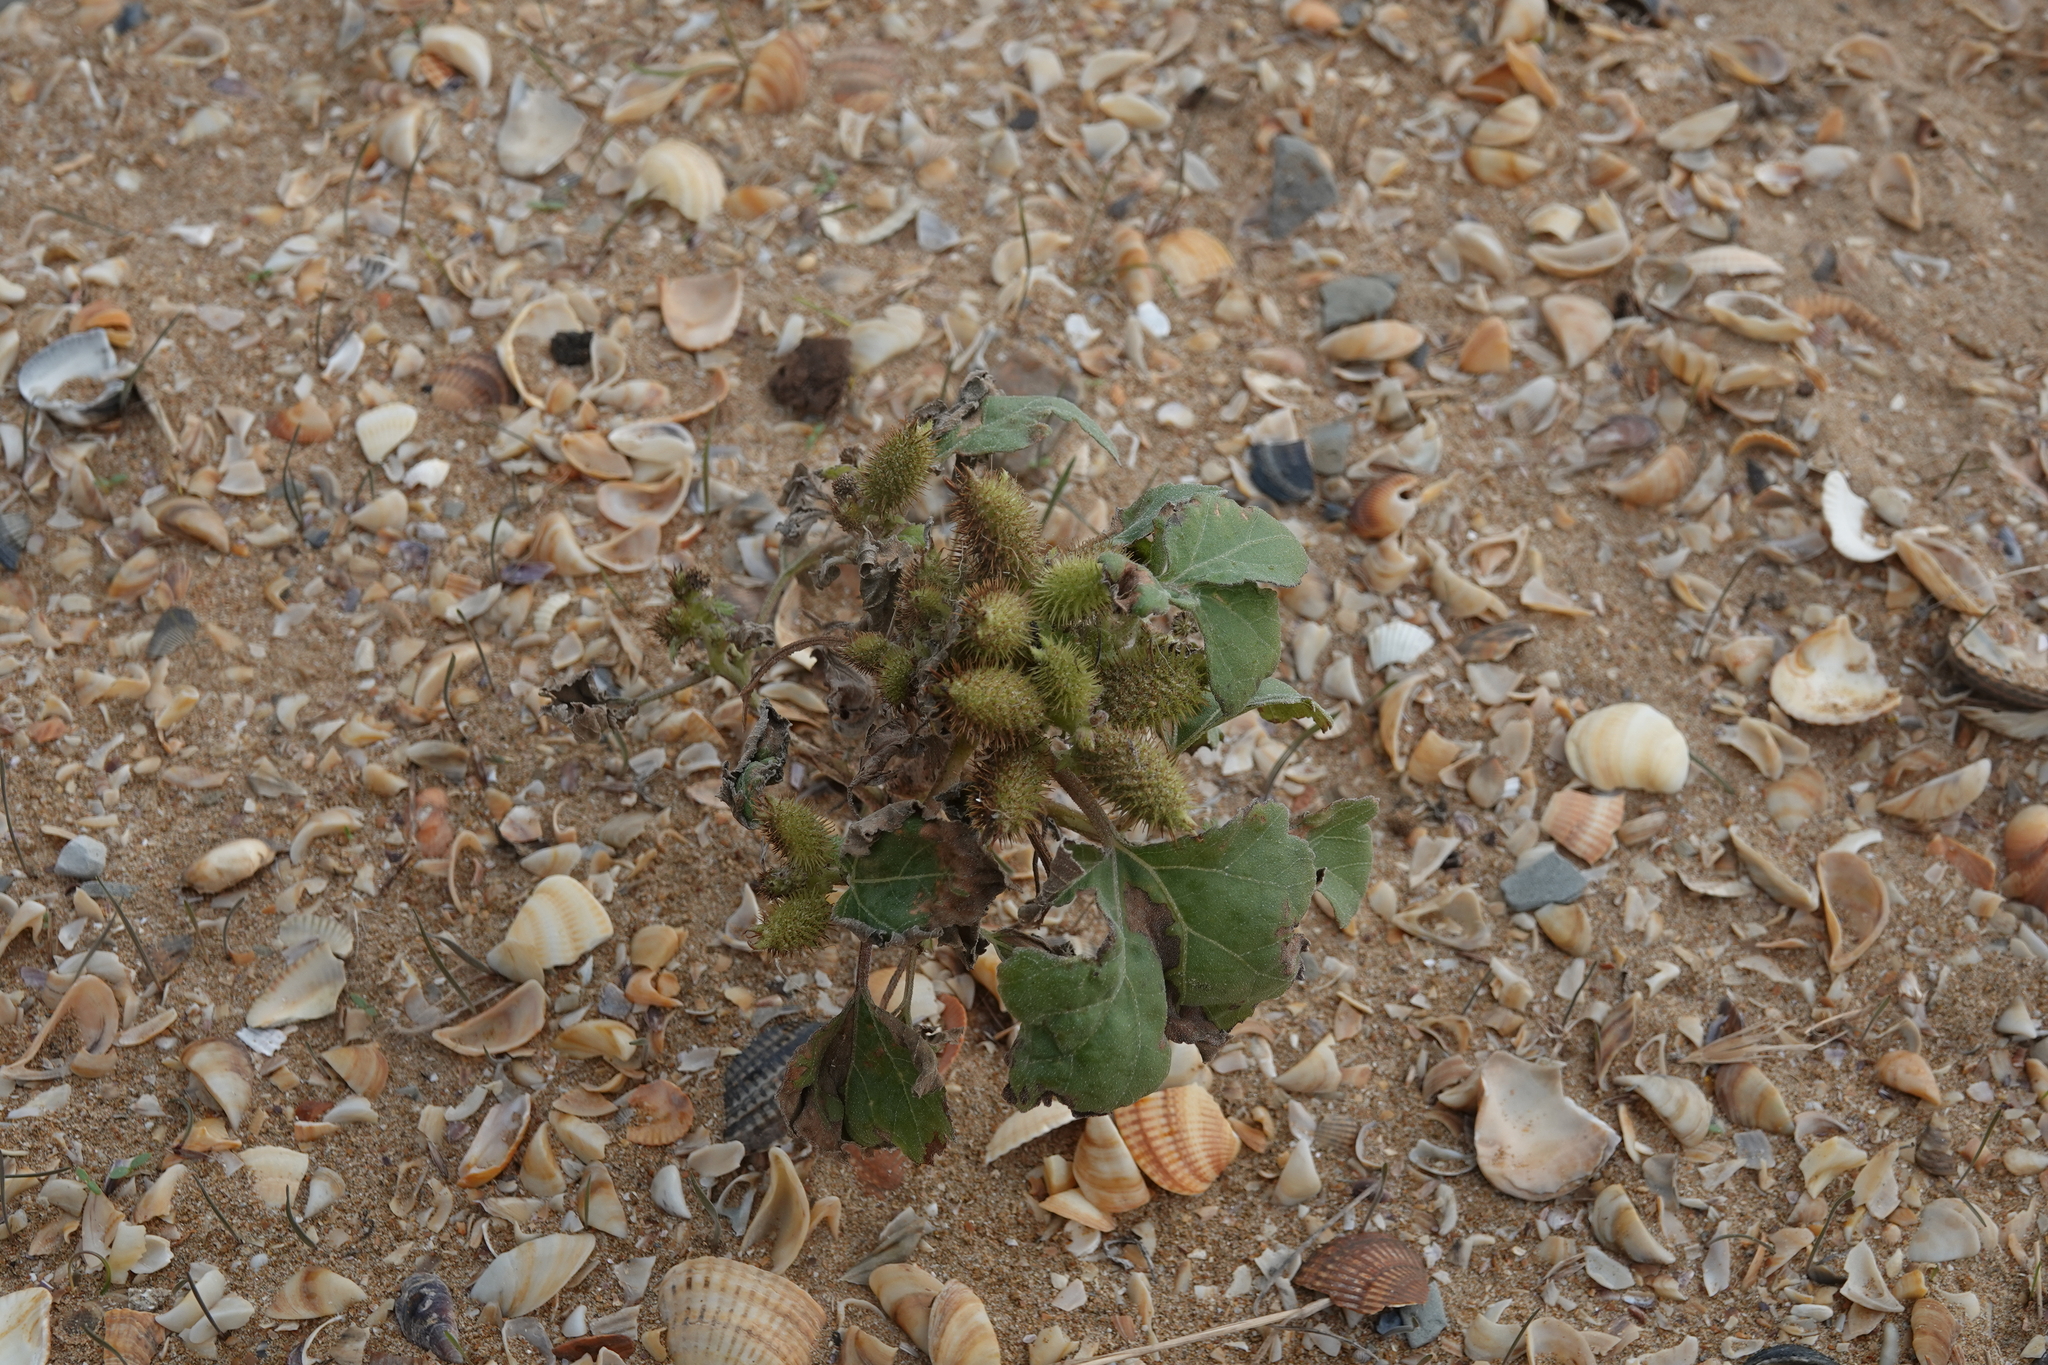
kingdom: Plantae
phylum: Tracheophyta
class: Magnoliopsida
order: Asterales
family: Asteraceae
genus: Xanthium
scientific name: Xanthium orientale
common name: Californian burr
